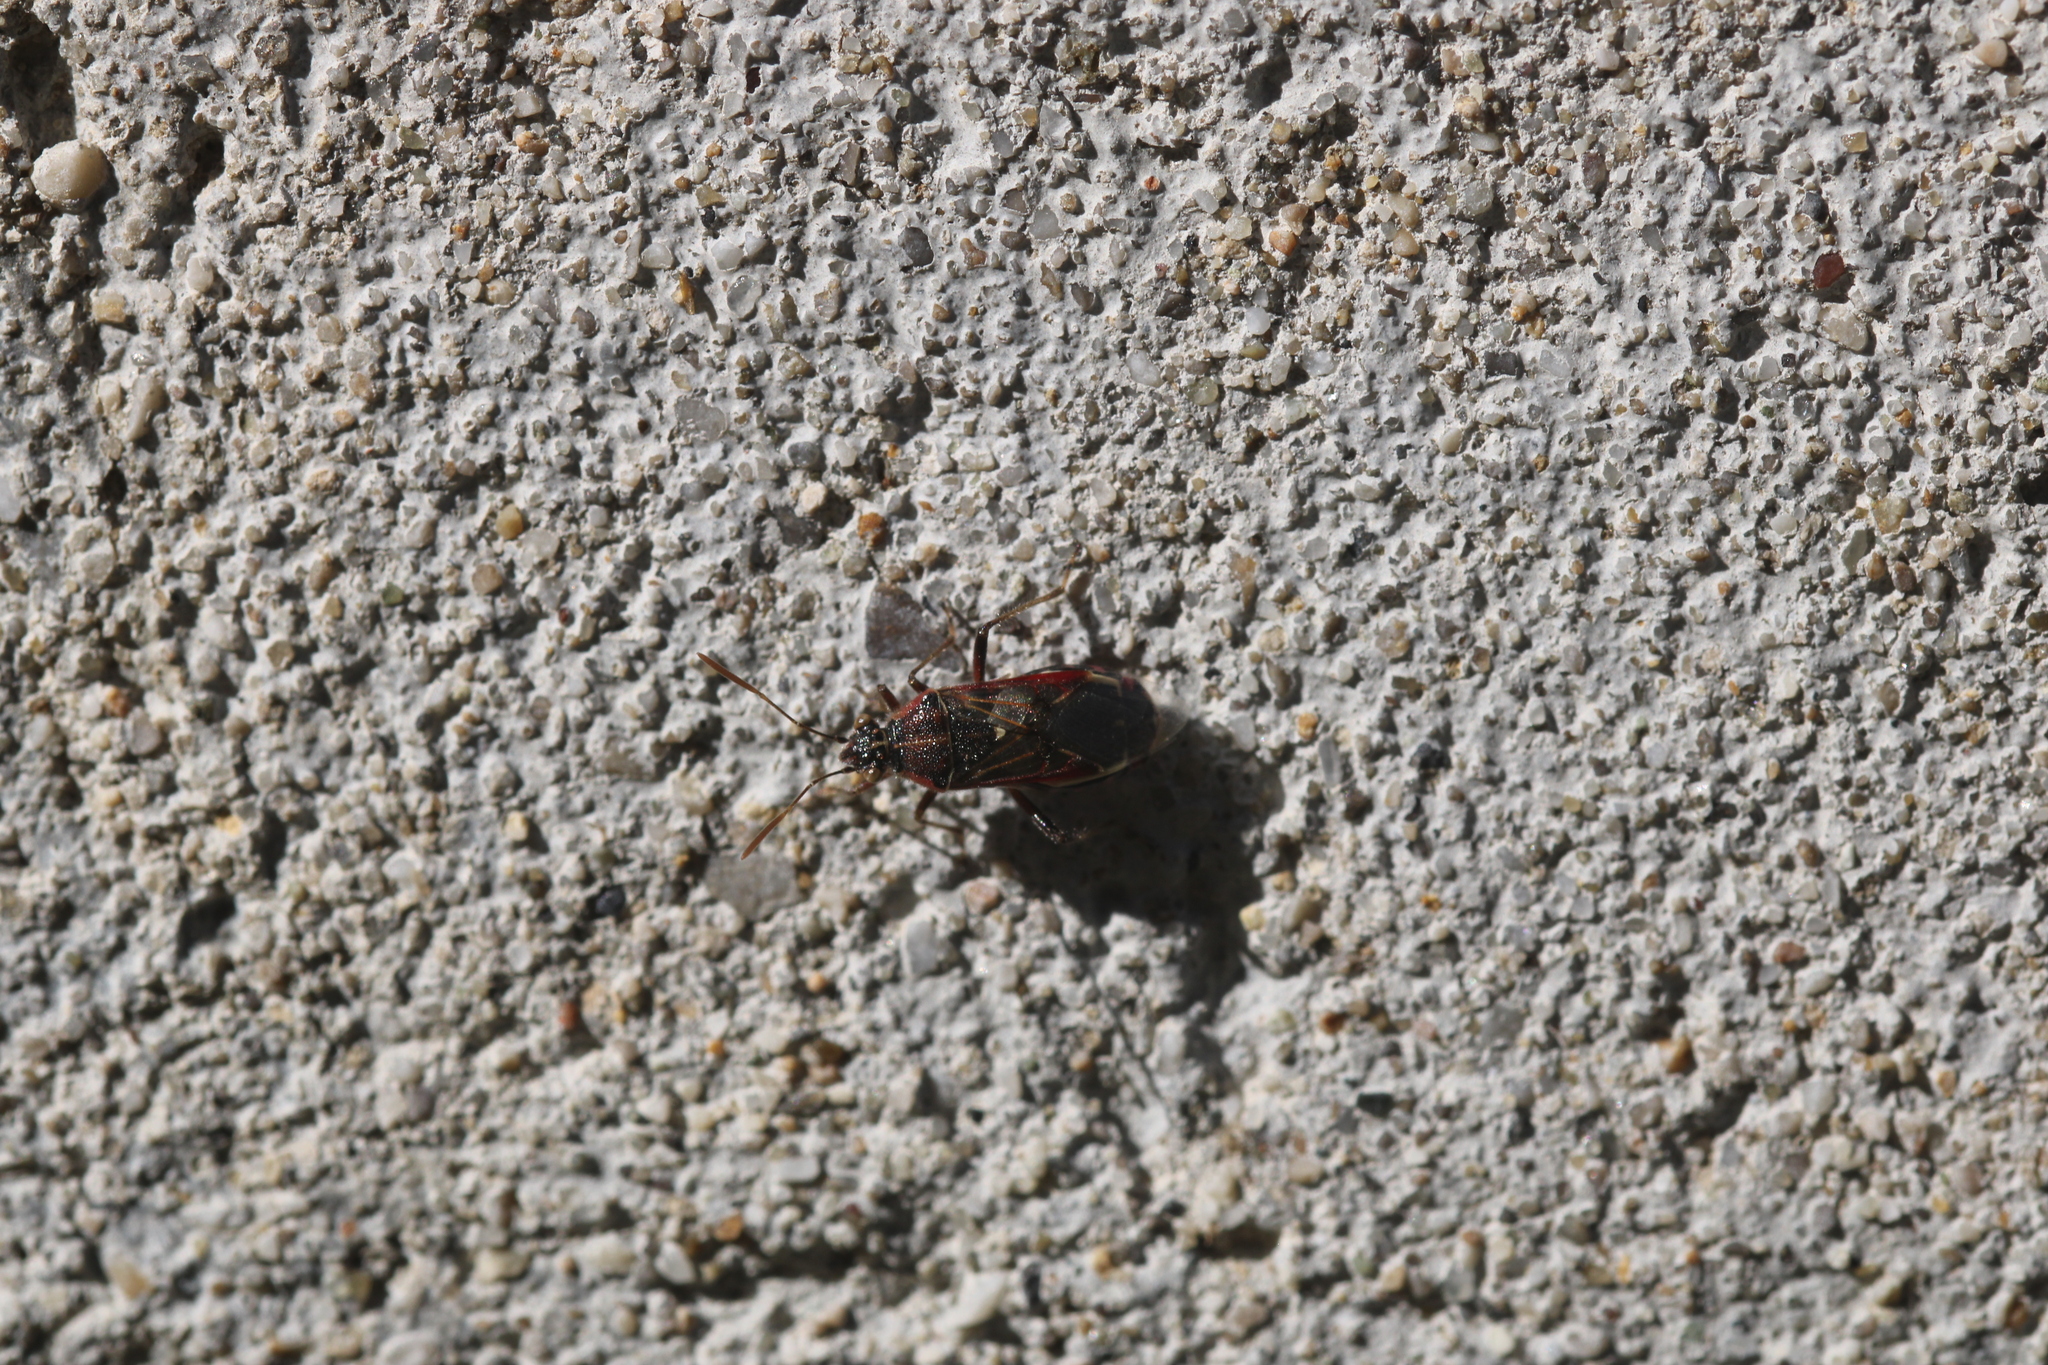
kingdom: Animalia
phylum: Arthropoda
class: Insecta
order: Hemiptera
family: Rhopalidae
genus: Liorhyssus
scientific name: Liorhyssus hyalinus
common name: Scentless plant bug
